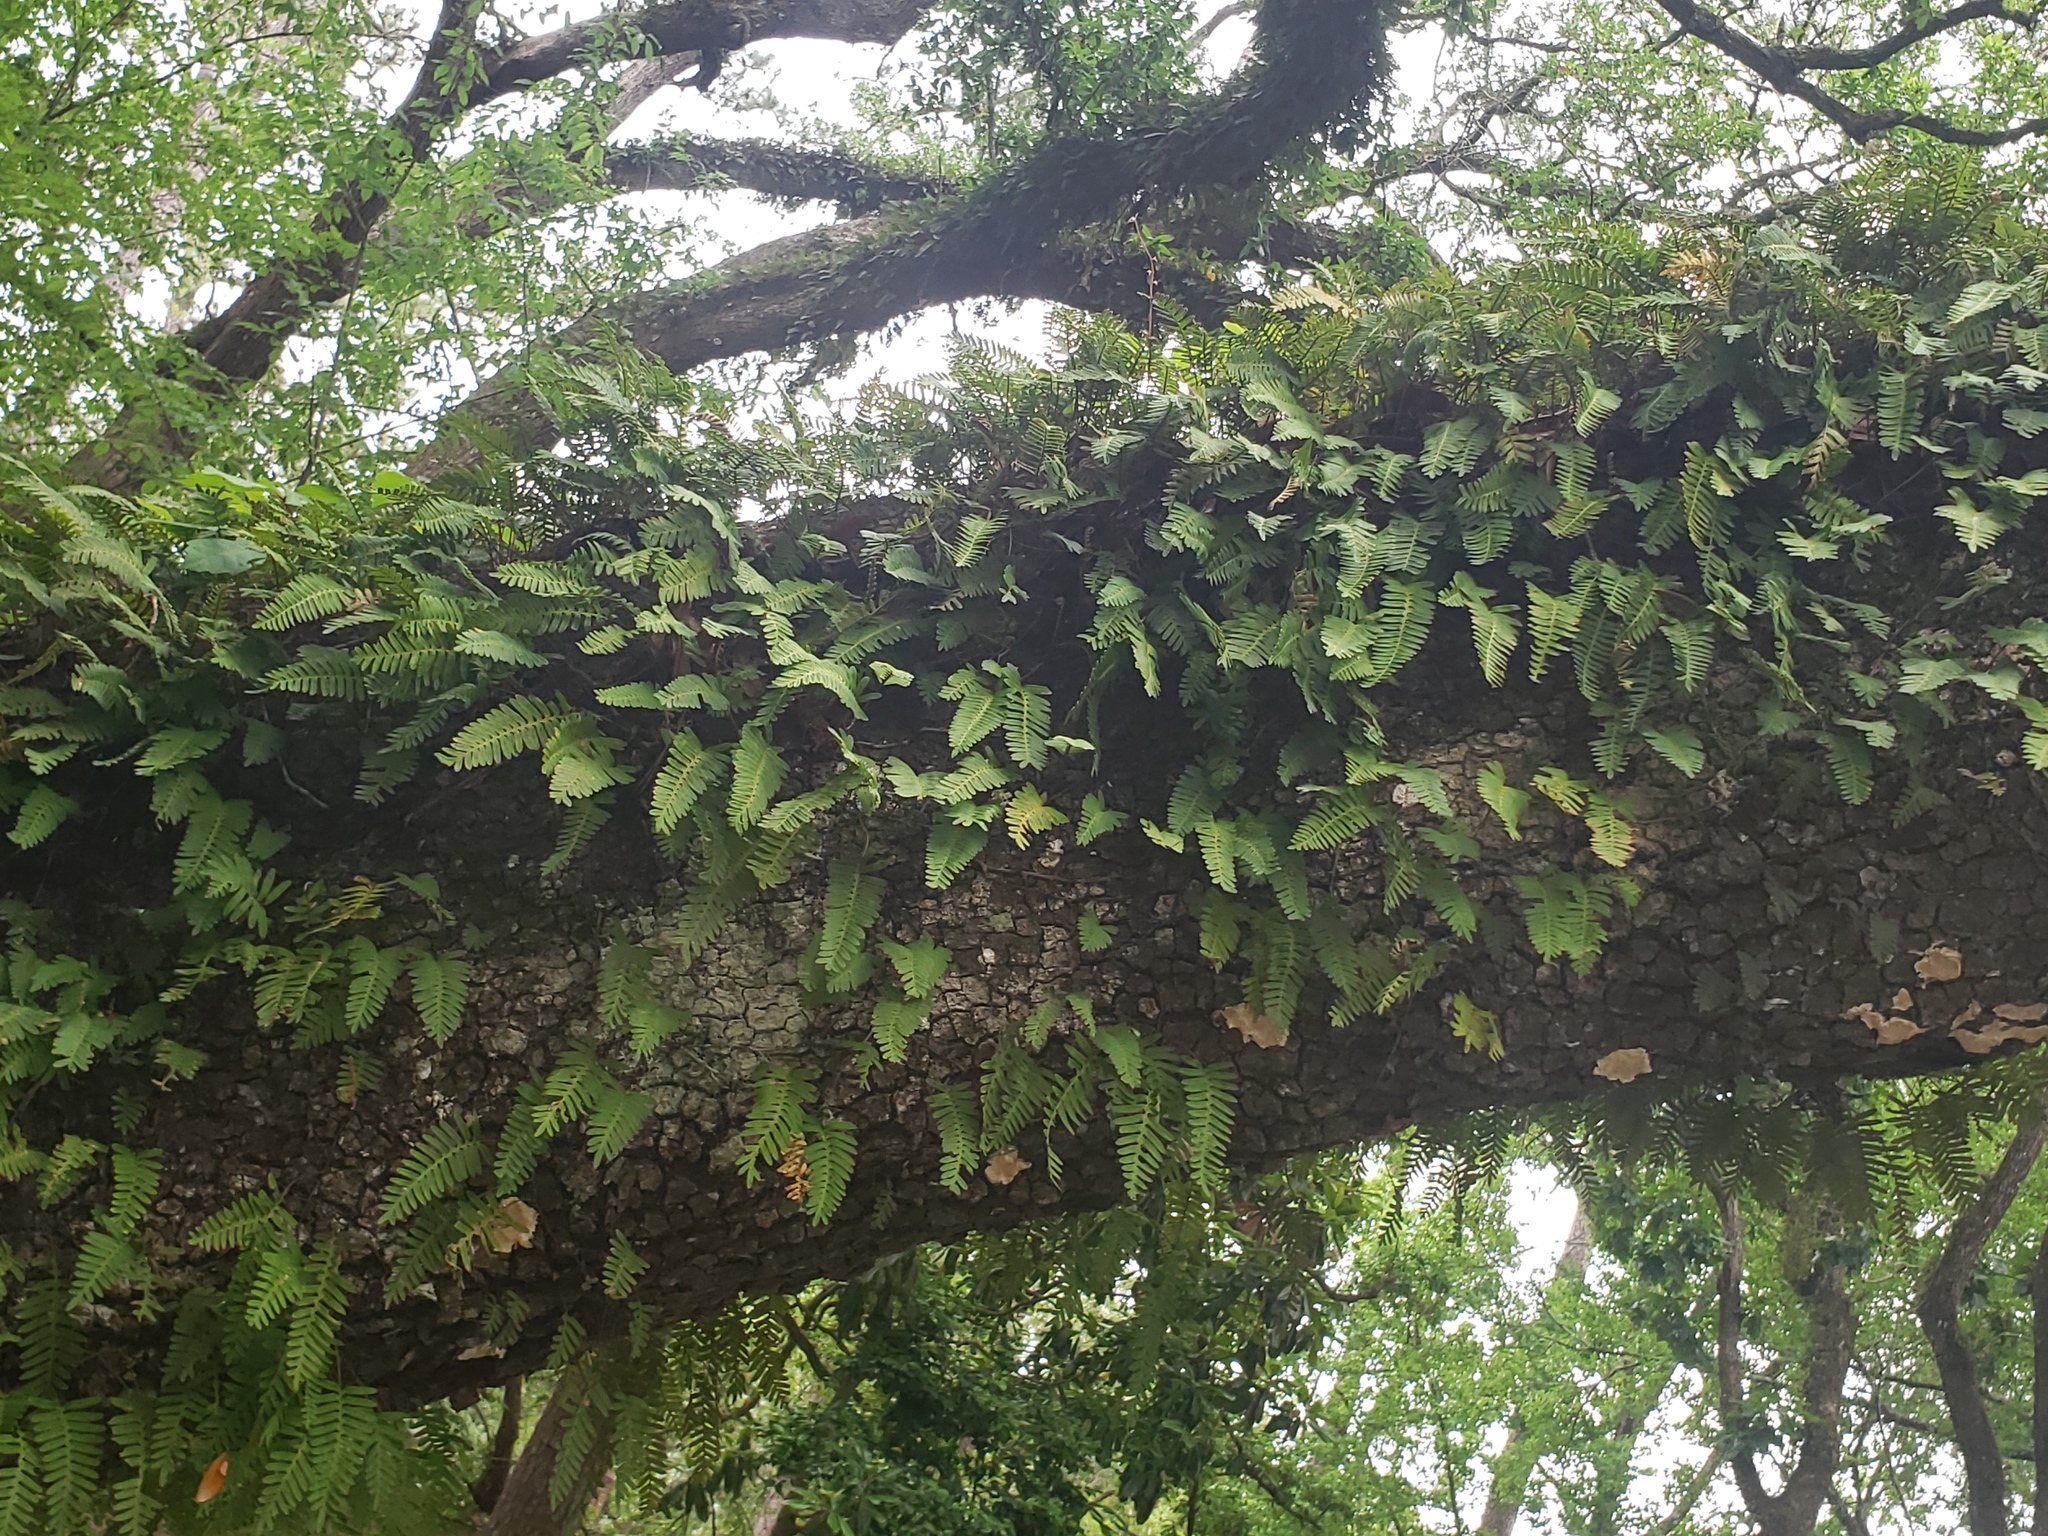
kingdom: Plantae
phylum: Tracheophyta
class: Polypodiopsida
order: Polypodiales
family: Polypodiaceae
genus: Pleopeltis
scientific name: Pleopeltis michauxiana
